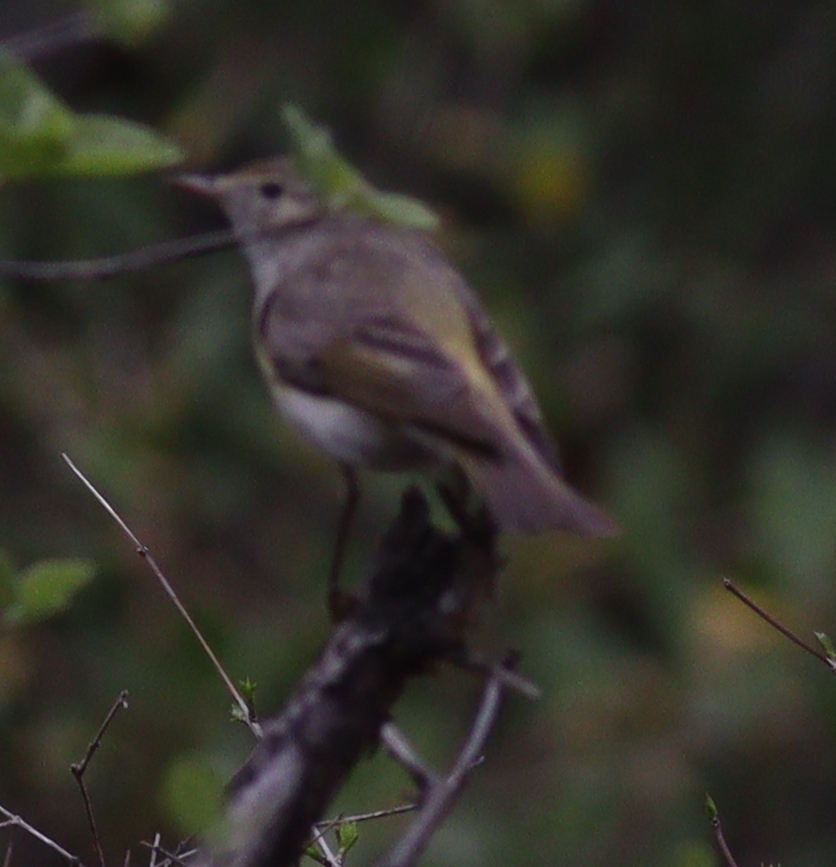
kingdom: Animalia
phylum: Chordata
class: Aves
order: Passeriformes
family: Phylloscopidae
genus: Phylloscopus
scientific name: Phylloscopus orientalis
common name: Eastern bonelli's warbler
